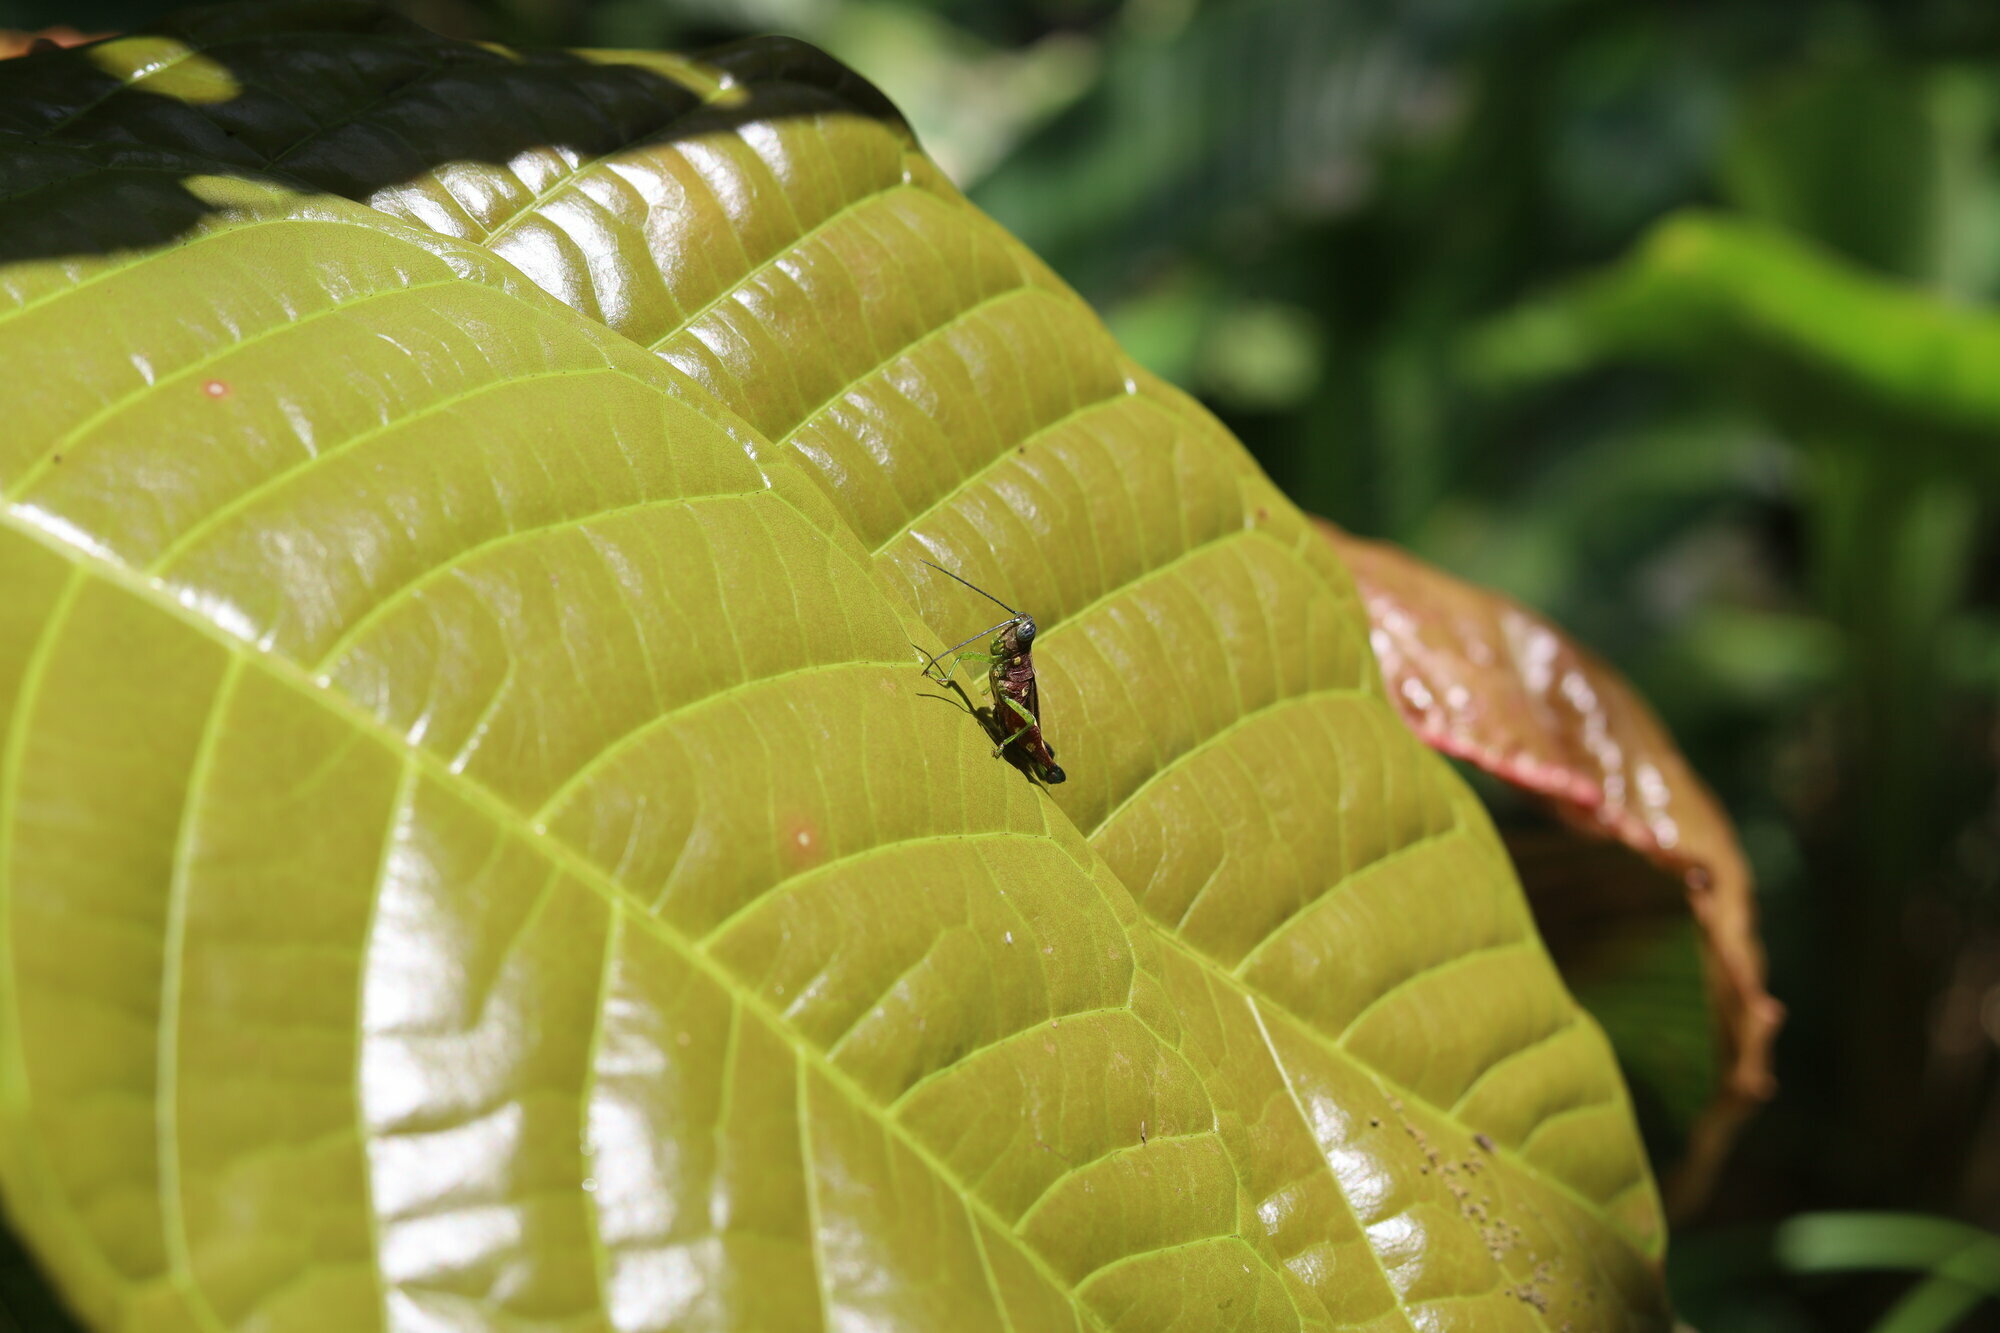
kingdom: Animalia
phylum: Arthropoda
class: Insecta
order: Orthoptera
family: Acrididae
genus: Syntomacris
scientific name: Syntomacris guttulosa
